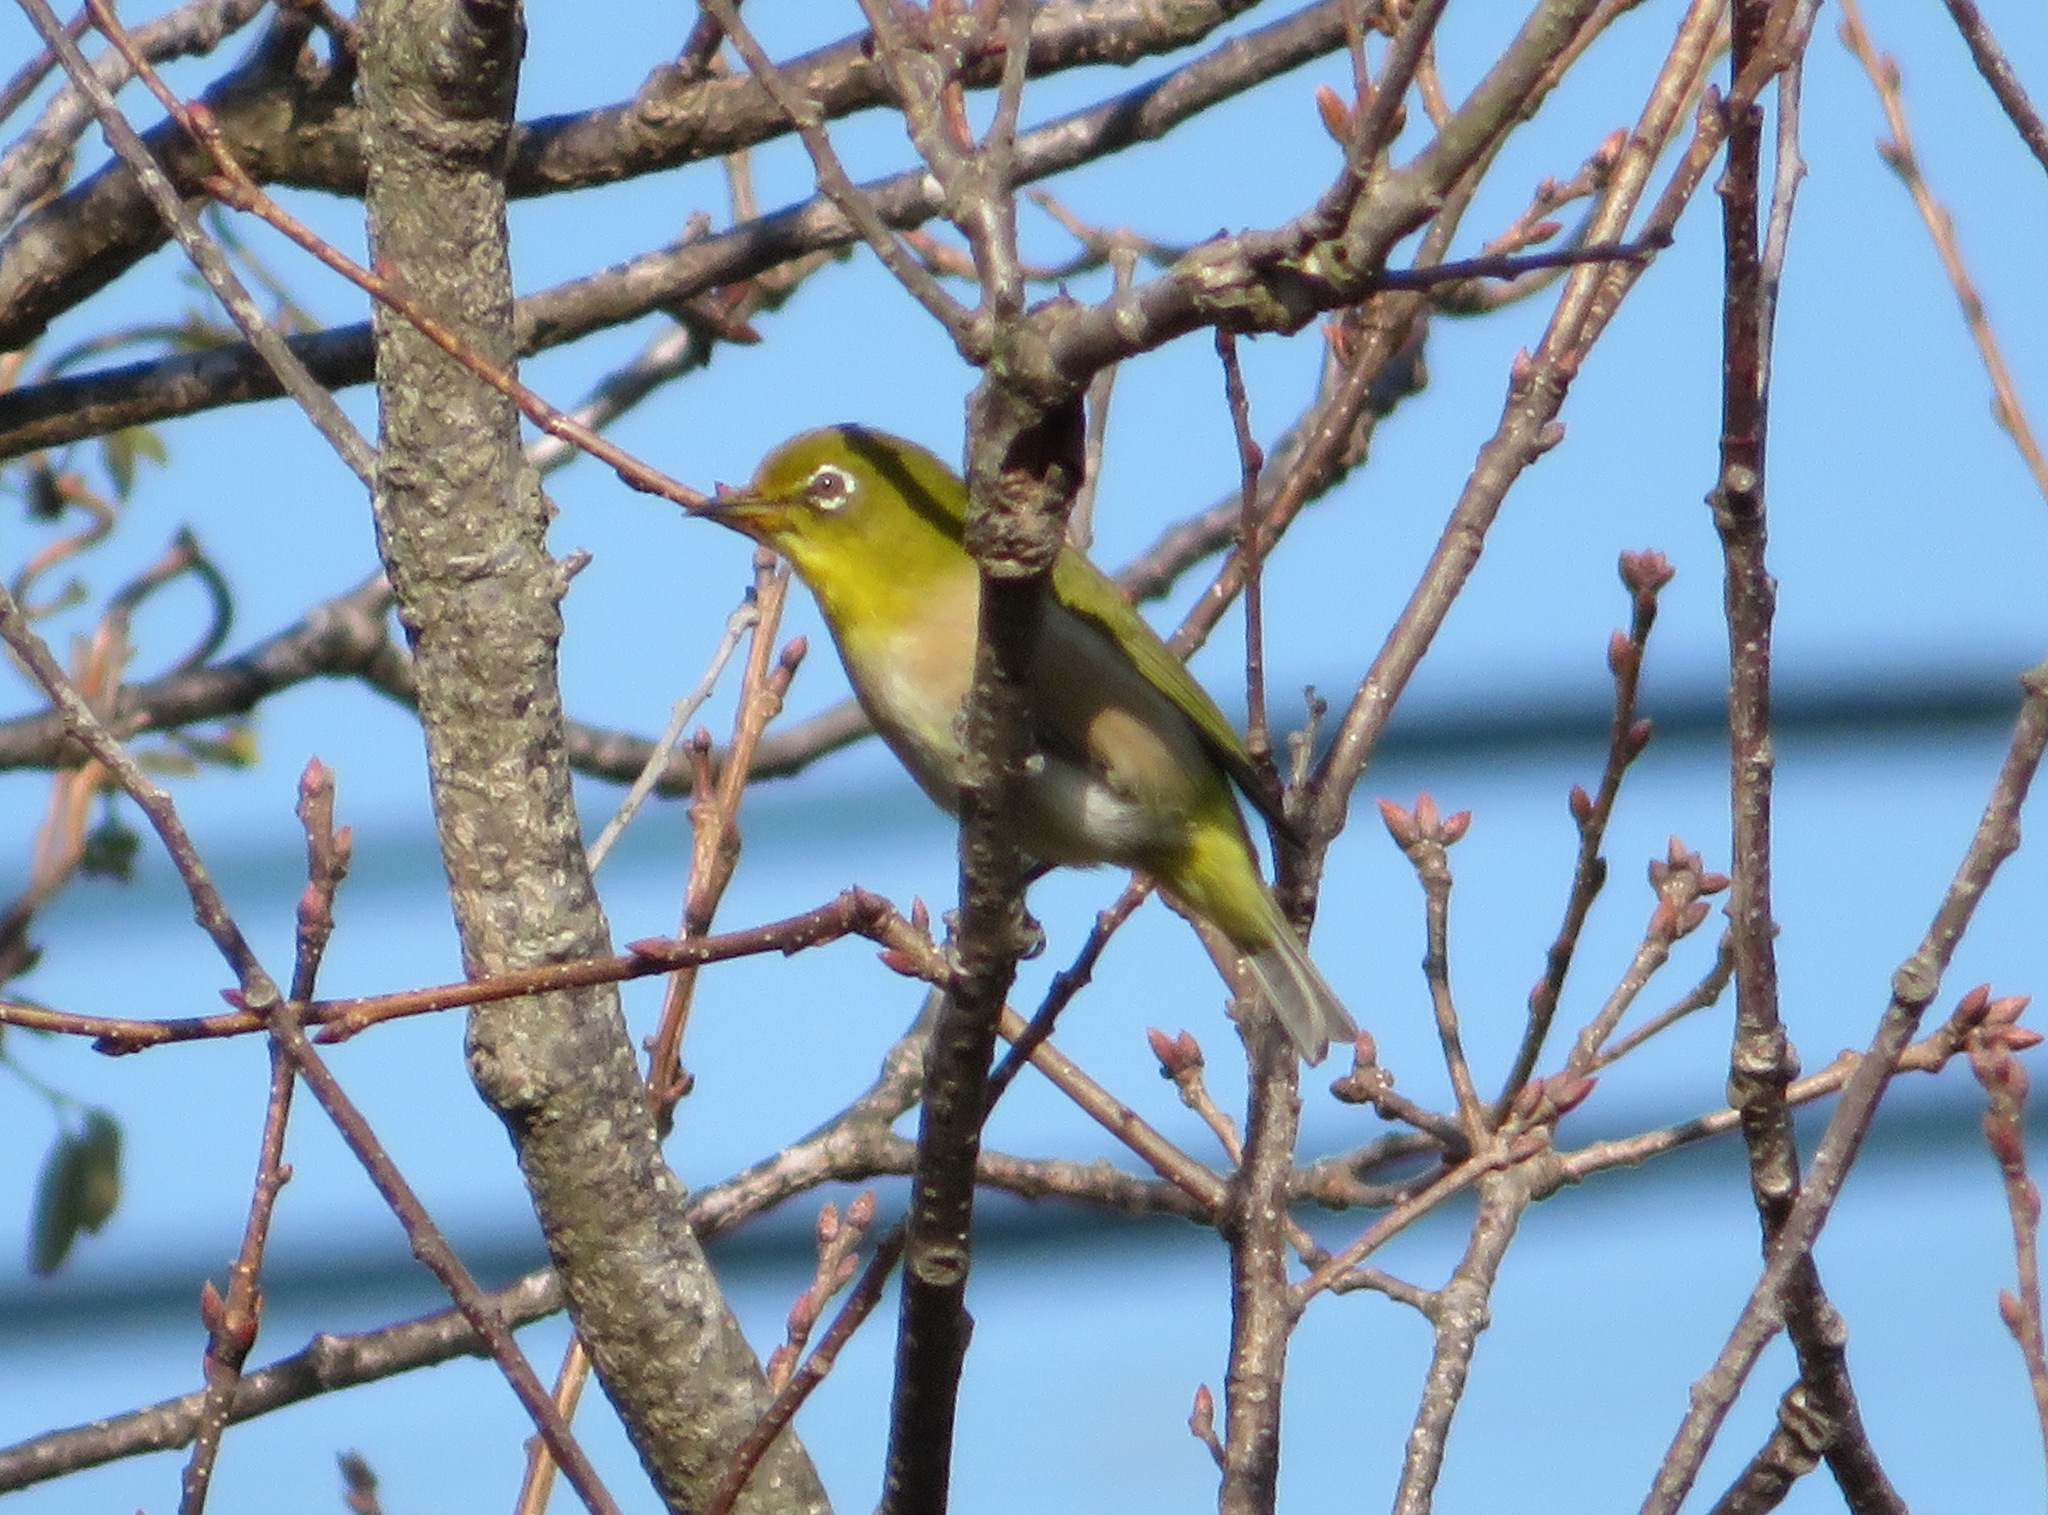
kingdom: Animalia
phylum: Chordata
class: Aves
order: Passeriformes
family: Zosteropidae
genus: Zosterops
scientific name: Zosterops japonicus
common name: Japanese white-eye
